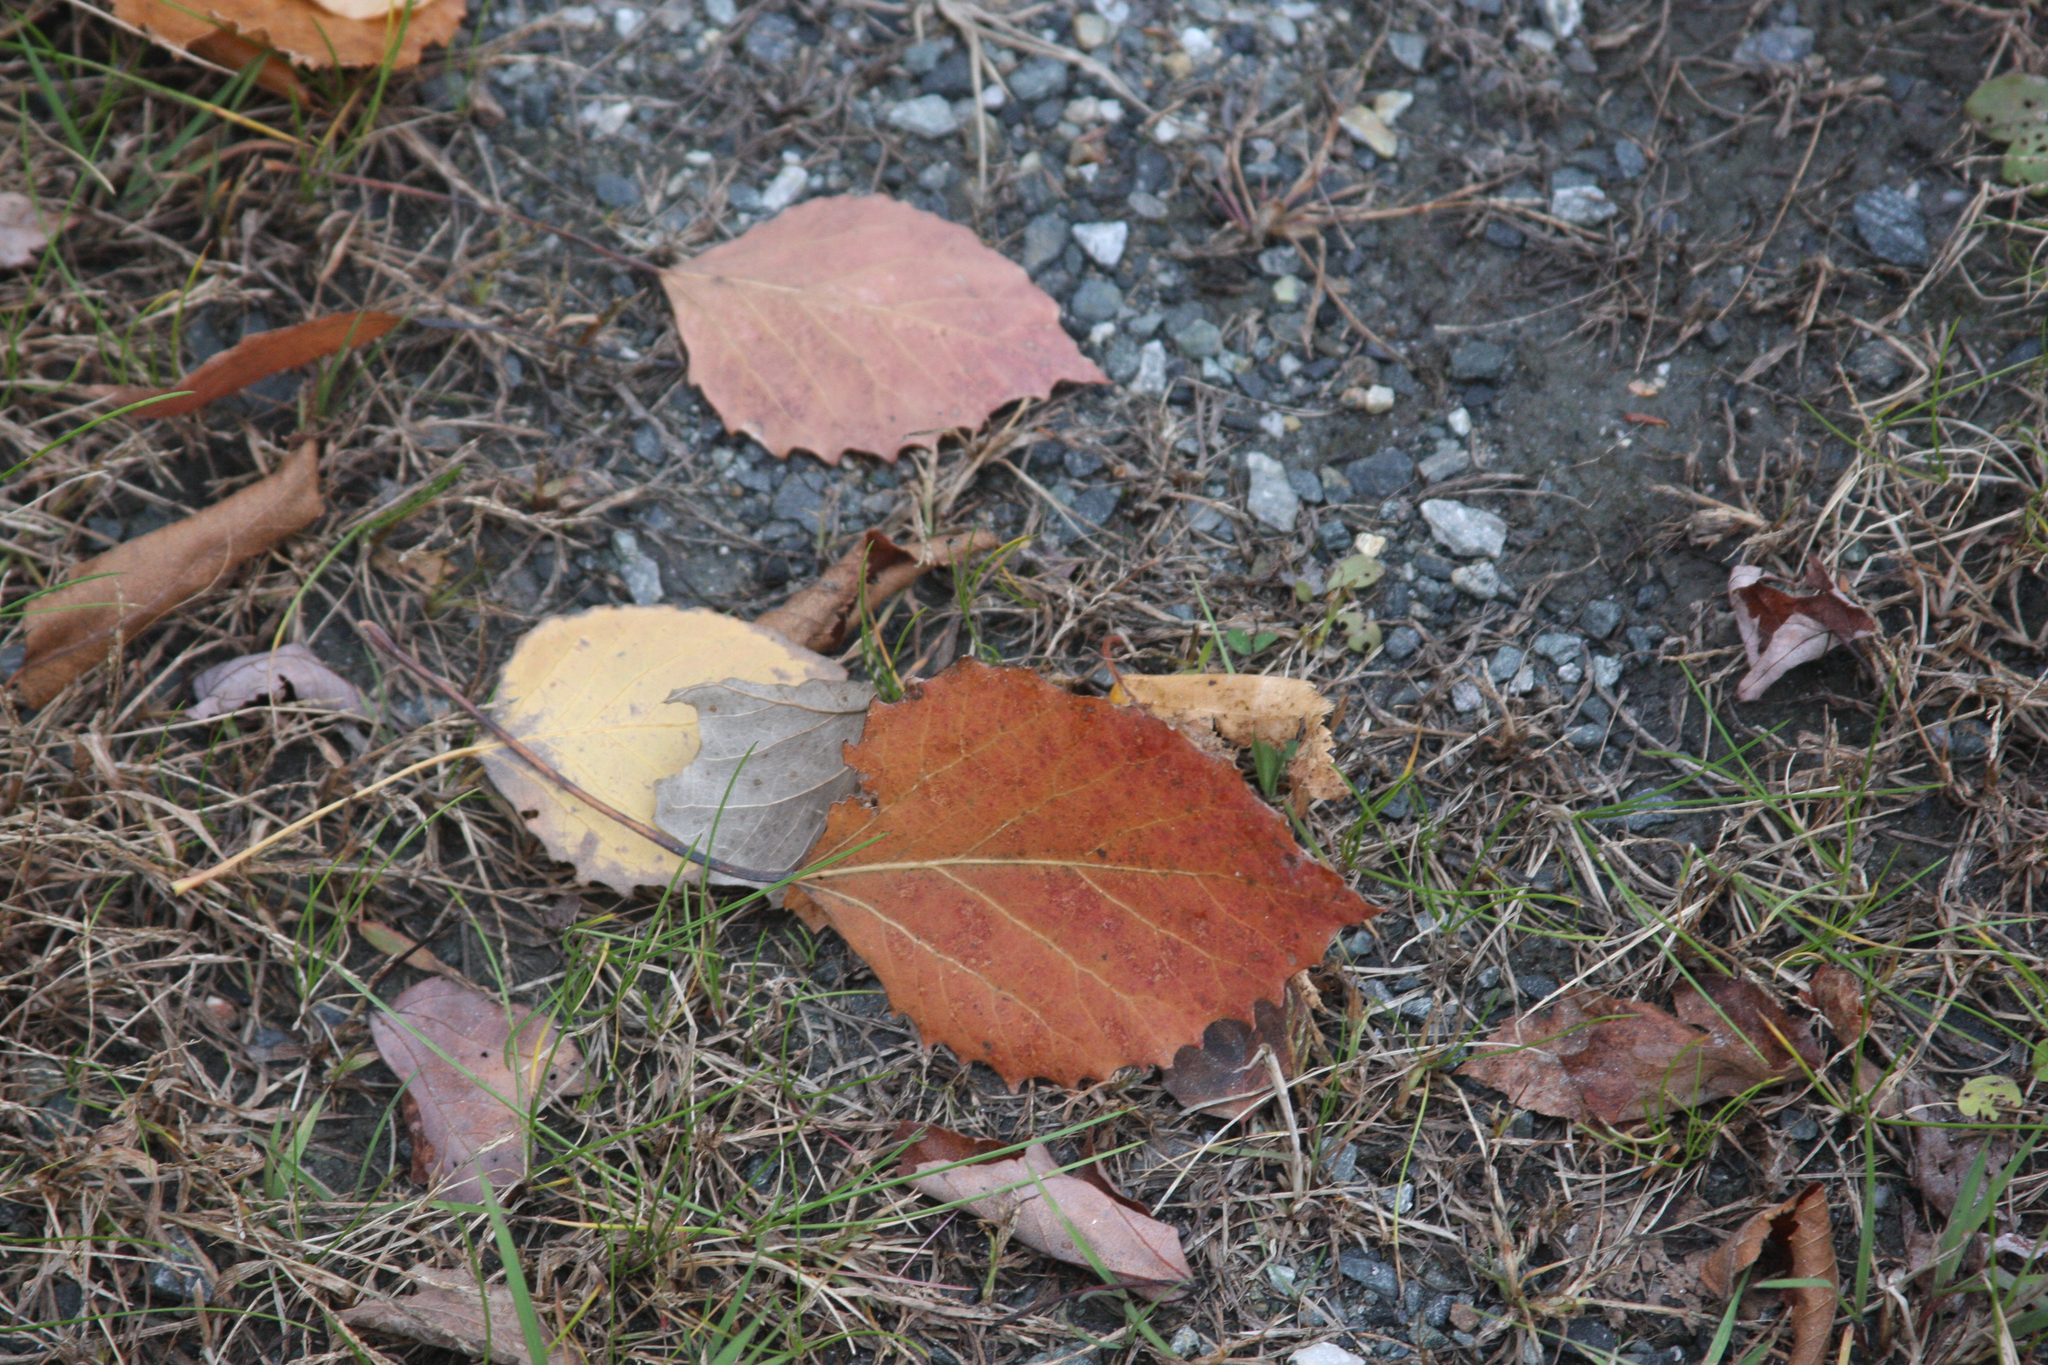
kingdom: Plantae
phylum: Tracheophyta
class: Magnoliopsida
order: Malpighiales
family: Salicaceae
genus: Populus
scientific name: Populus grandidentata
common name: Bigtooth aspen
